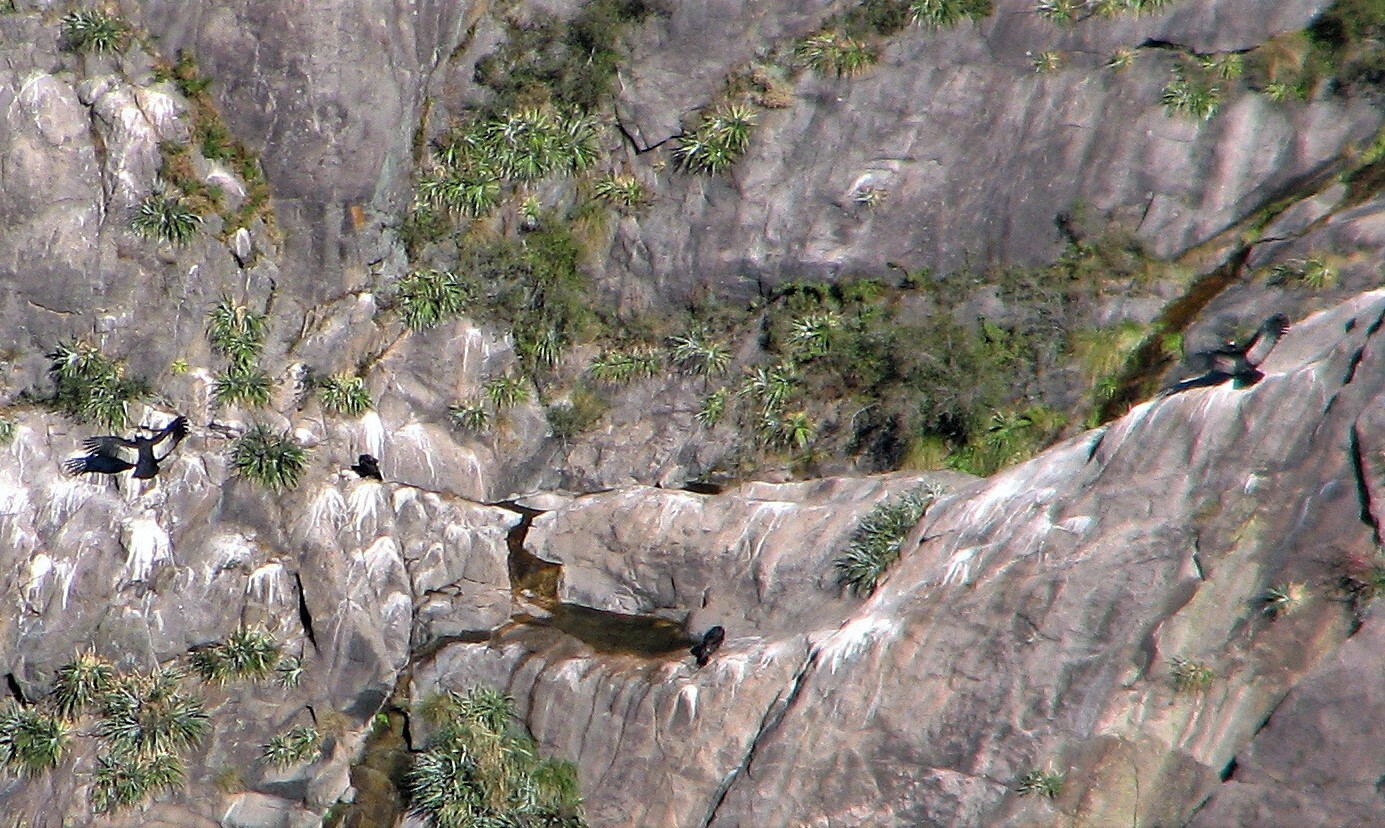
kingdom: Animalia
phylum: Chordata
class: Aves
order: Accipitriformes
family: Cathartidae
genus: Vultur
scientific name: Vultur gryphus
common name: Andean condor
